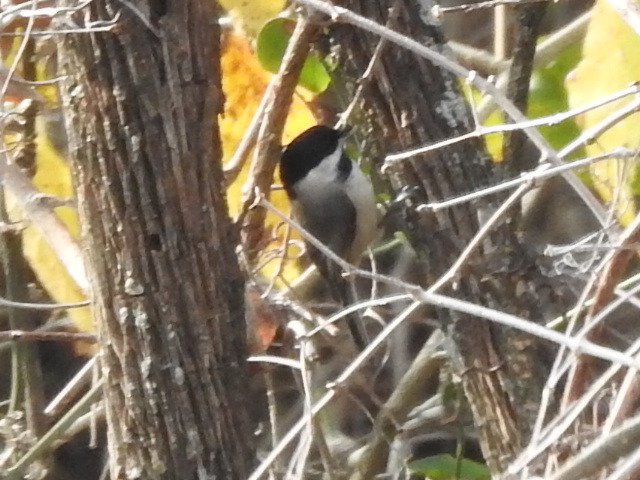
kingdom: Animalia
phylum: Chordata
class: Aves
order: Passeriformes
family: Paridae
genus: Poecile
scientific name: Poecile carolinensis
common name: Carolina chickadee
